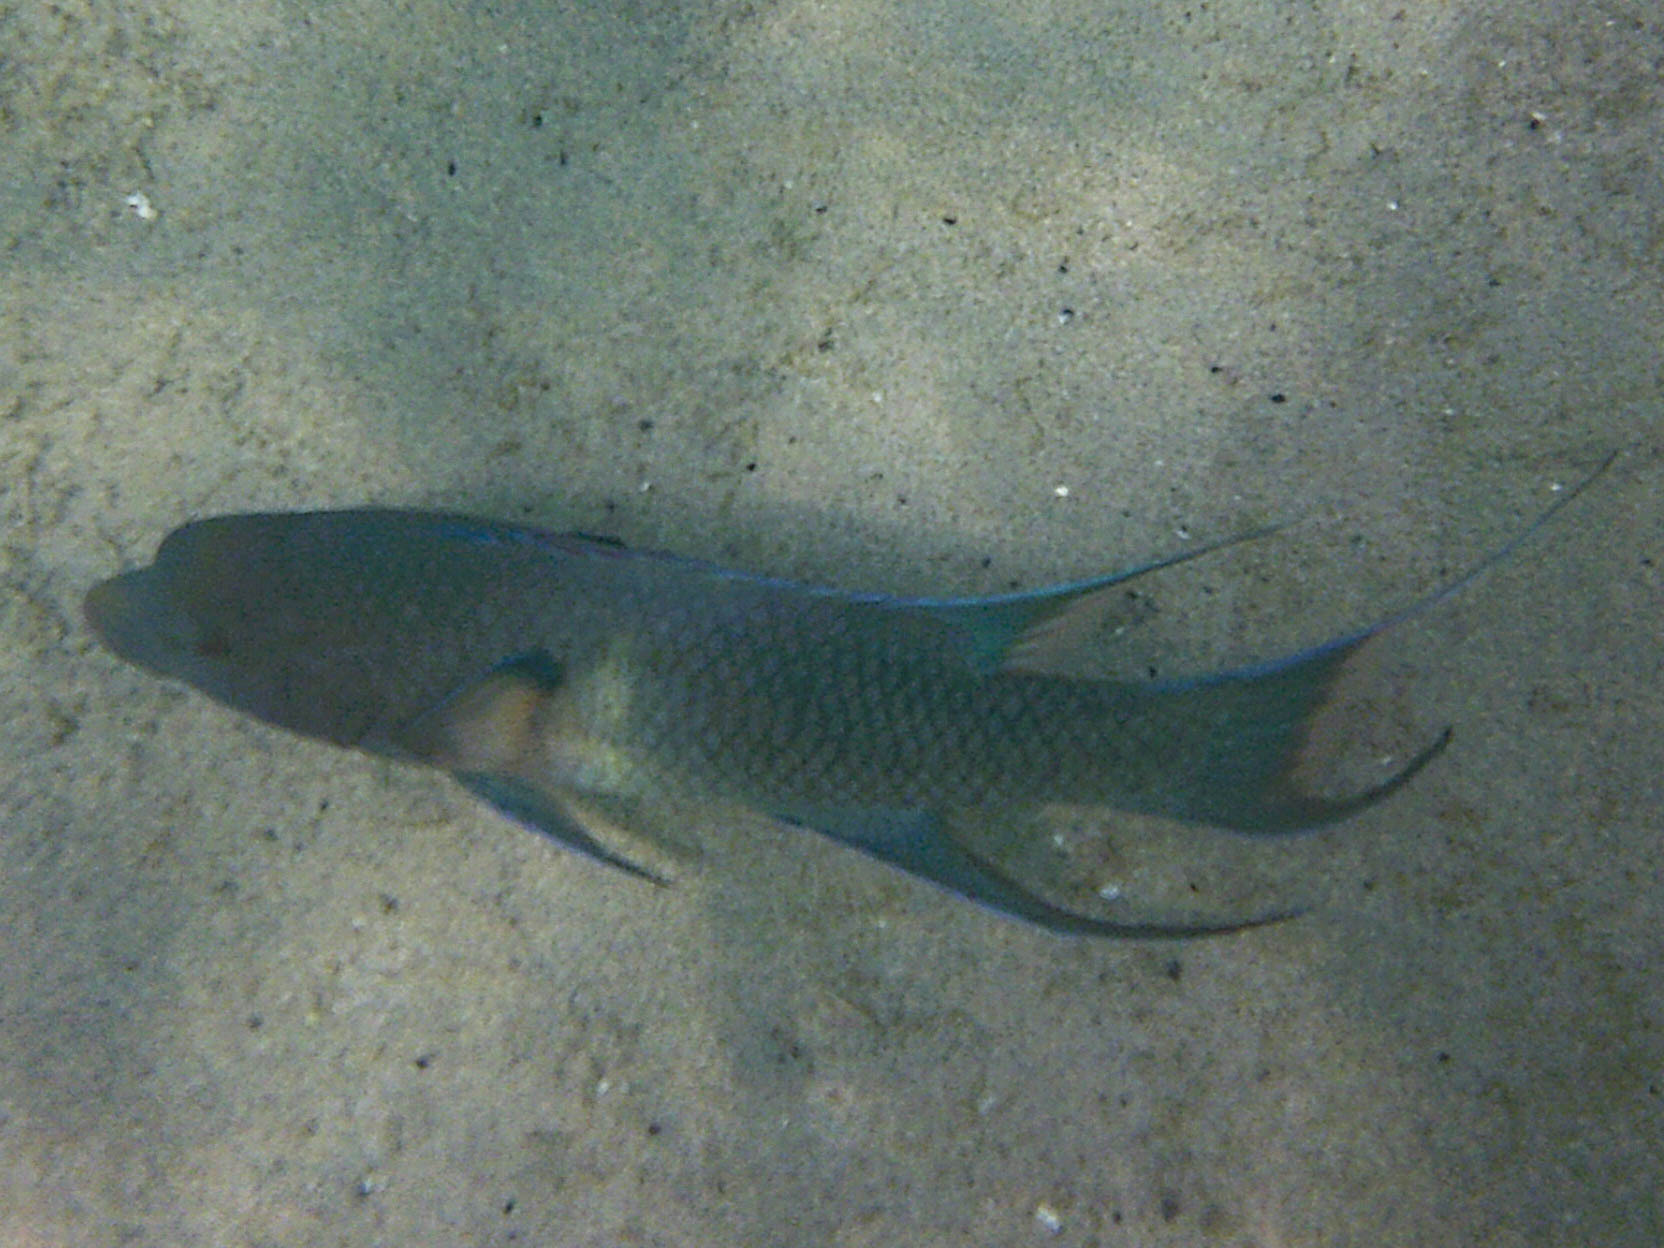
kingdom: Animalia
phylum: Chordata
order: Perciformes
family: Labridae
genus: Bodianus
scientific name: Bodianus diplotaenia
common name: Mexican hogfish
